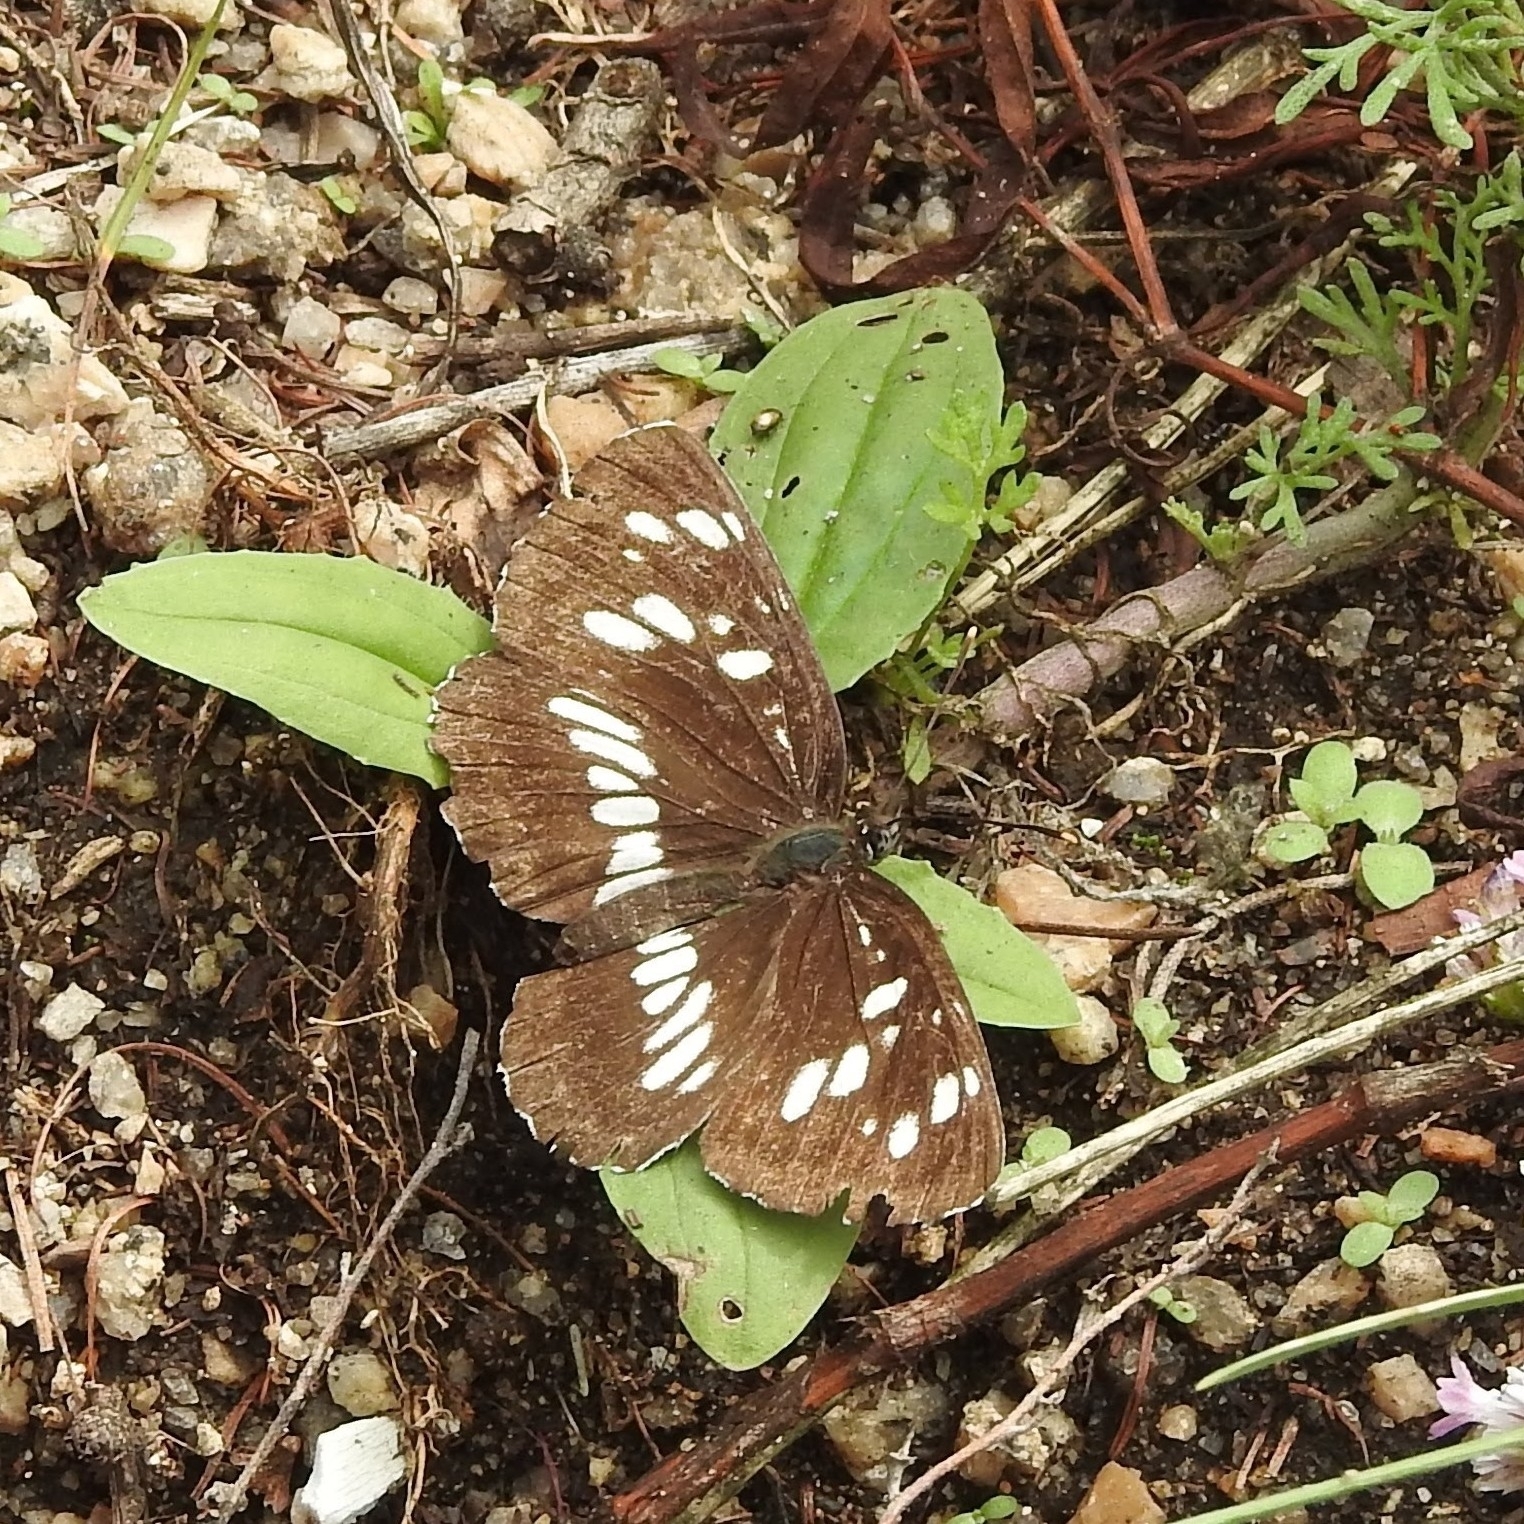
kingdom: Animalia
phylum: Arthropoda
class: Insecta
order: Lepidoptera
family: Nymphalidae
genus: Neptis
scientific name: Neptis rivularis
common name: Hungarian glider
